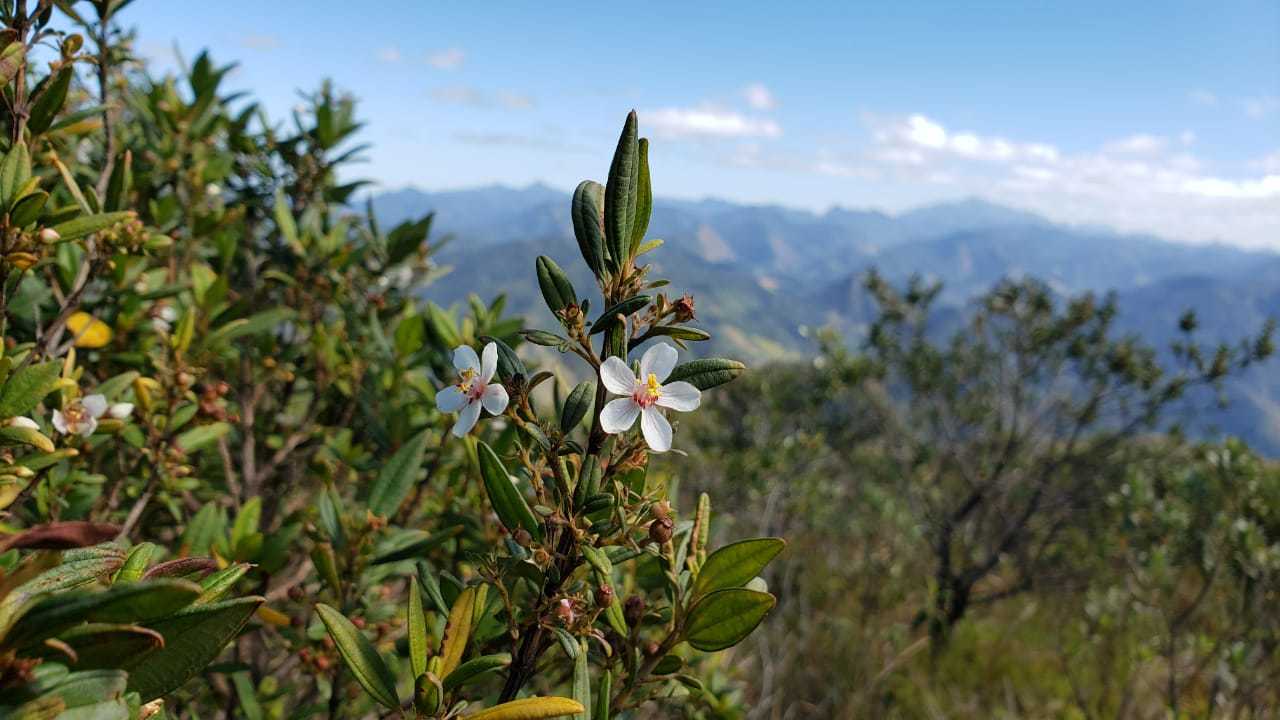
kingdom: Plantae
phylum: Tracheophyta
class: Magnoliopsida
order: Myrtales
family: Melastomataceae
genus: Microlicia
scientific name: Microlicia parviflora
